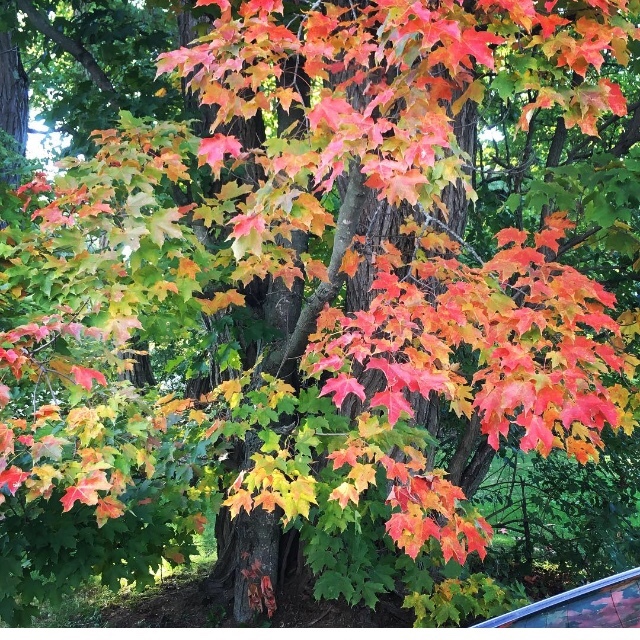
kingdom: Plantae
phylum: Tracheophyta
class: Magnoliopsida
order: Sapindales
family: Sapindaceae
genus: Acer
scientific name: Acer saccharum
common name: Sugar maple
